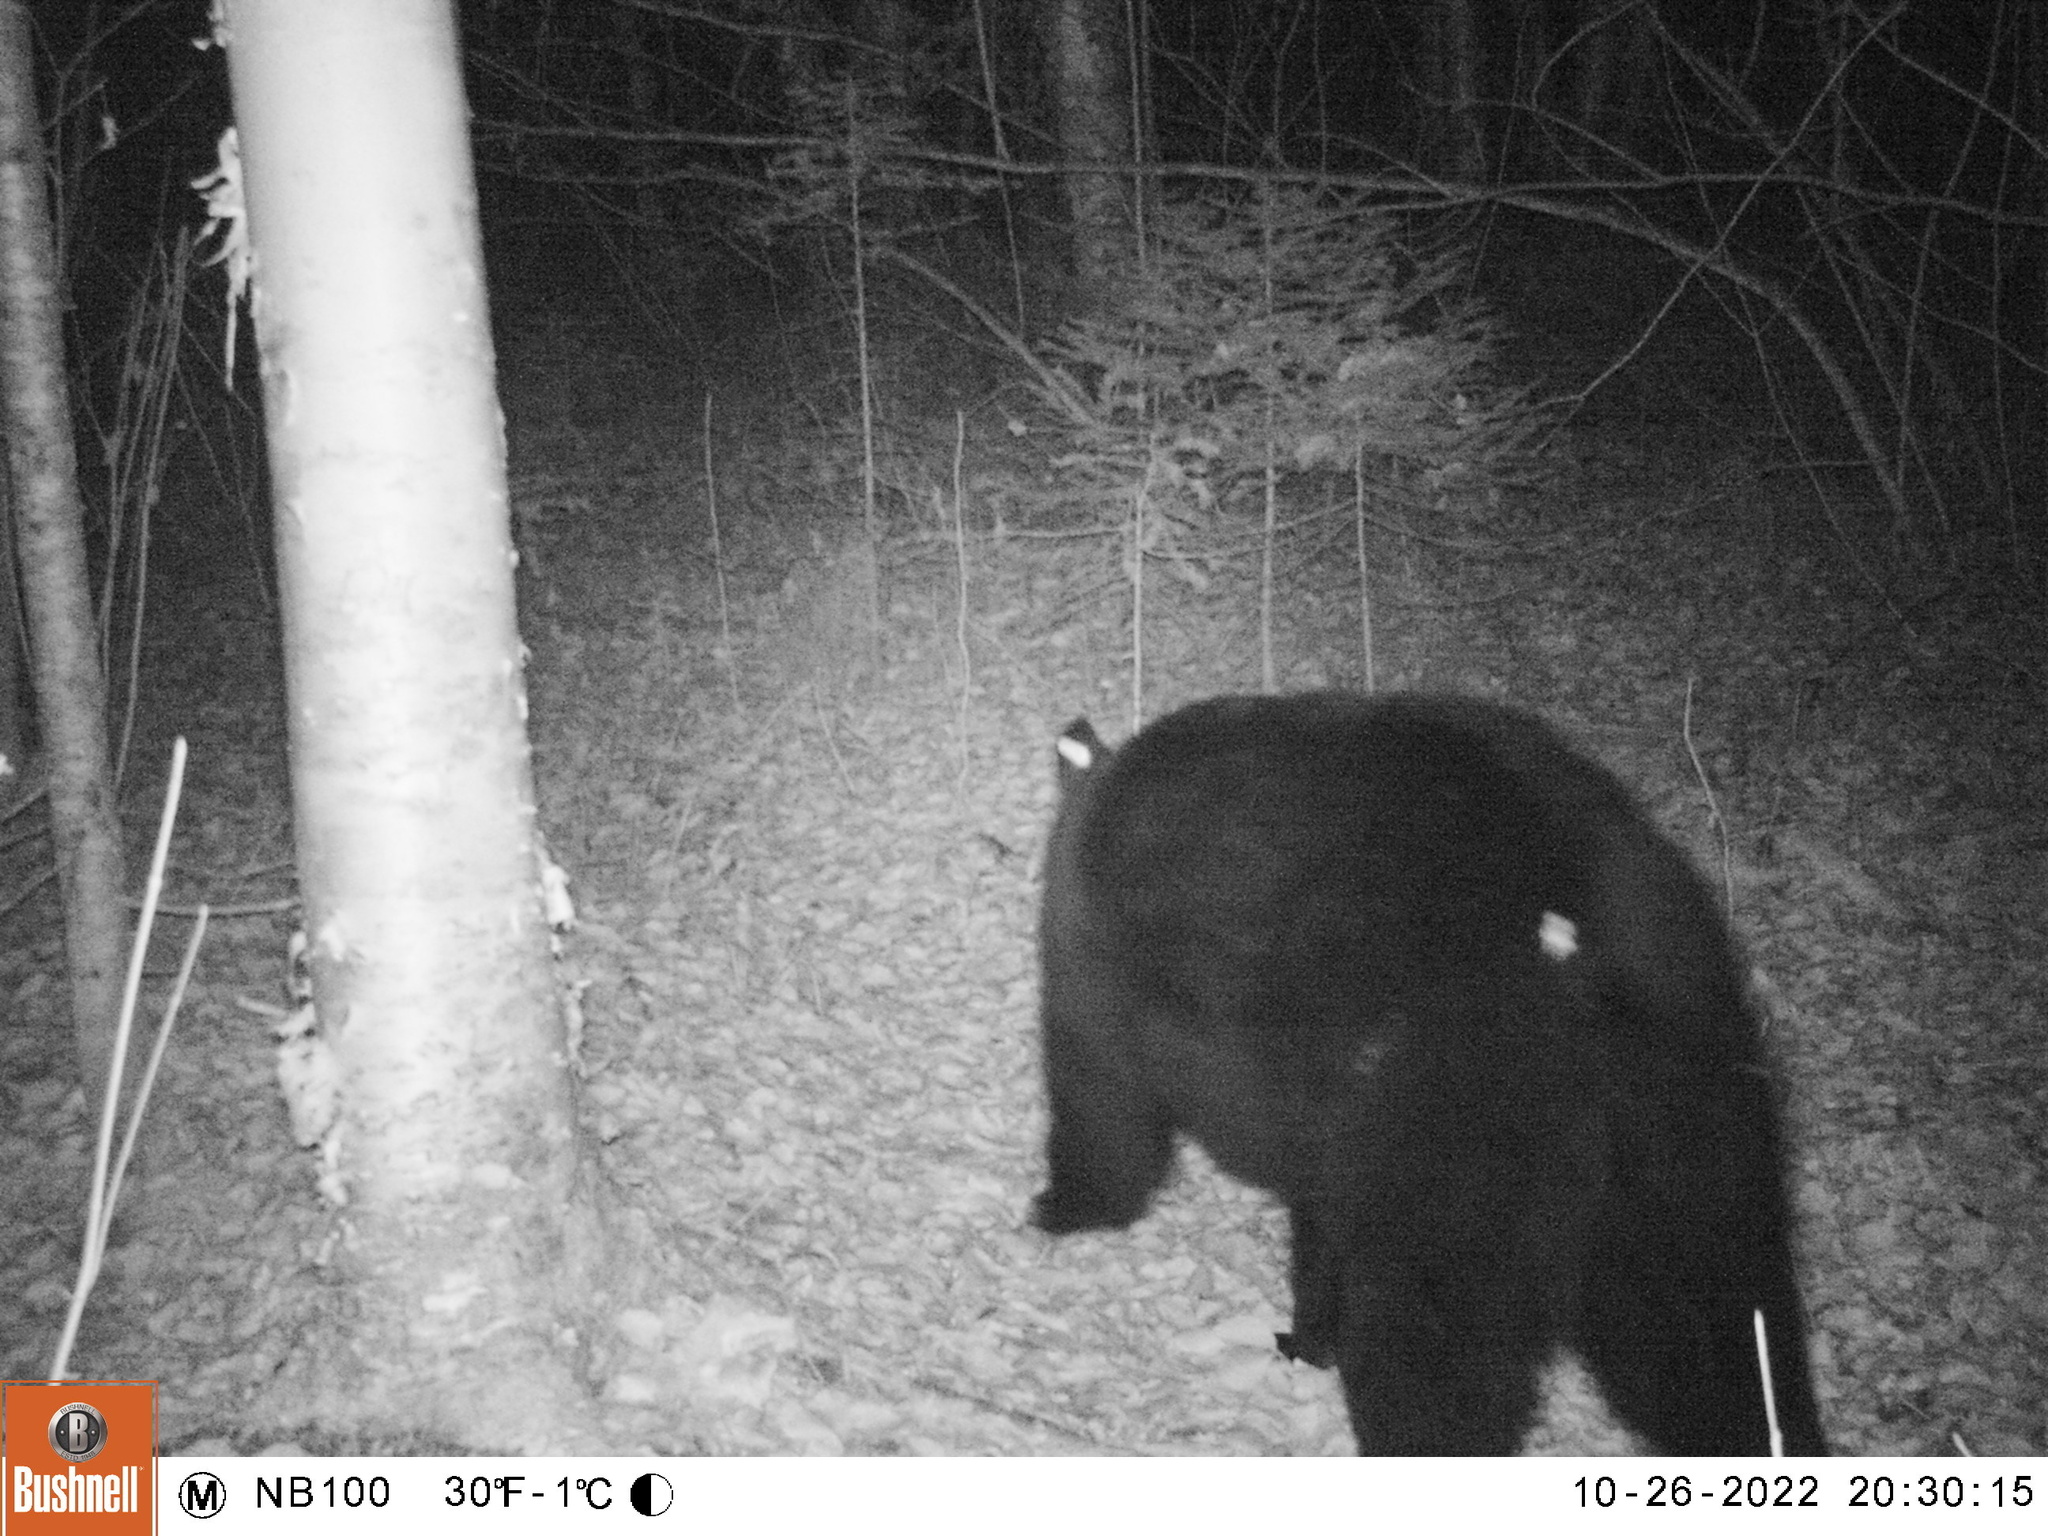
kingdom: Animalia
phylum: Chordata
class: Mammalia
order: Carnivora
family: Ursidae
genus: Ursus
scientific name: Ursus americanus
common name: American black bear
